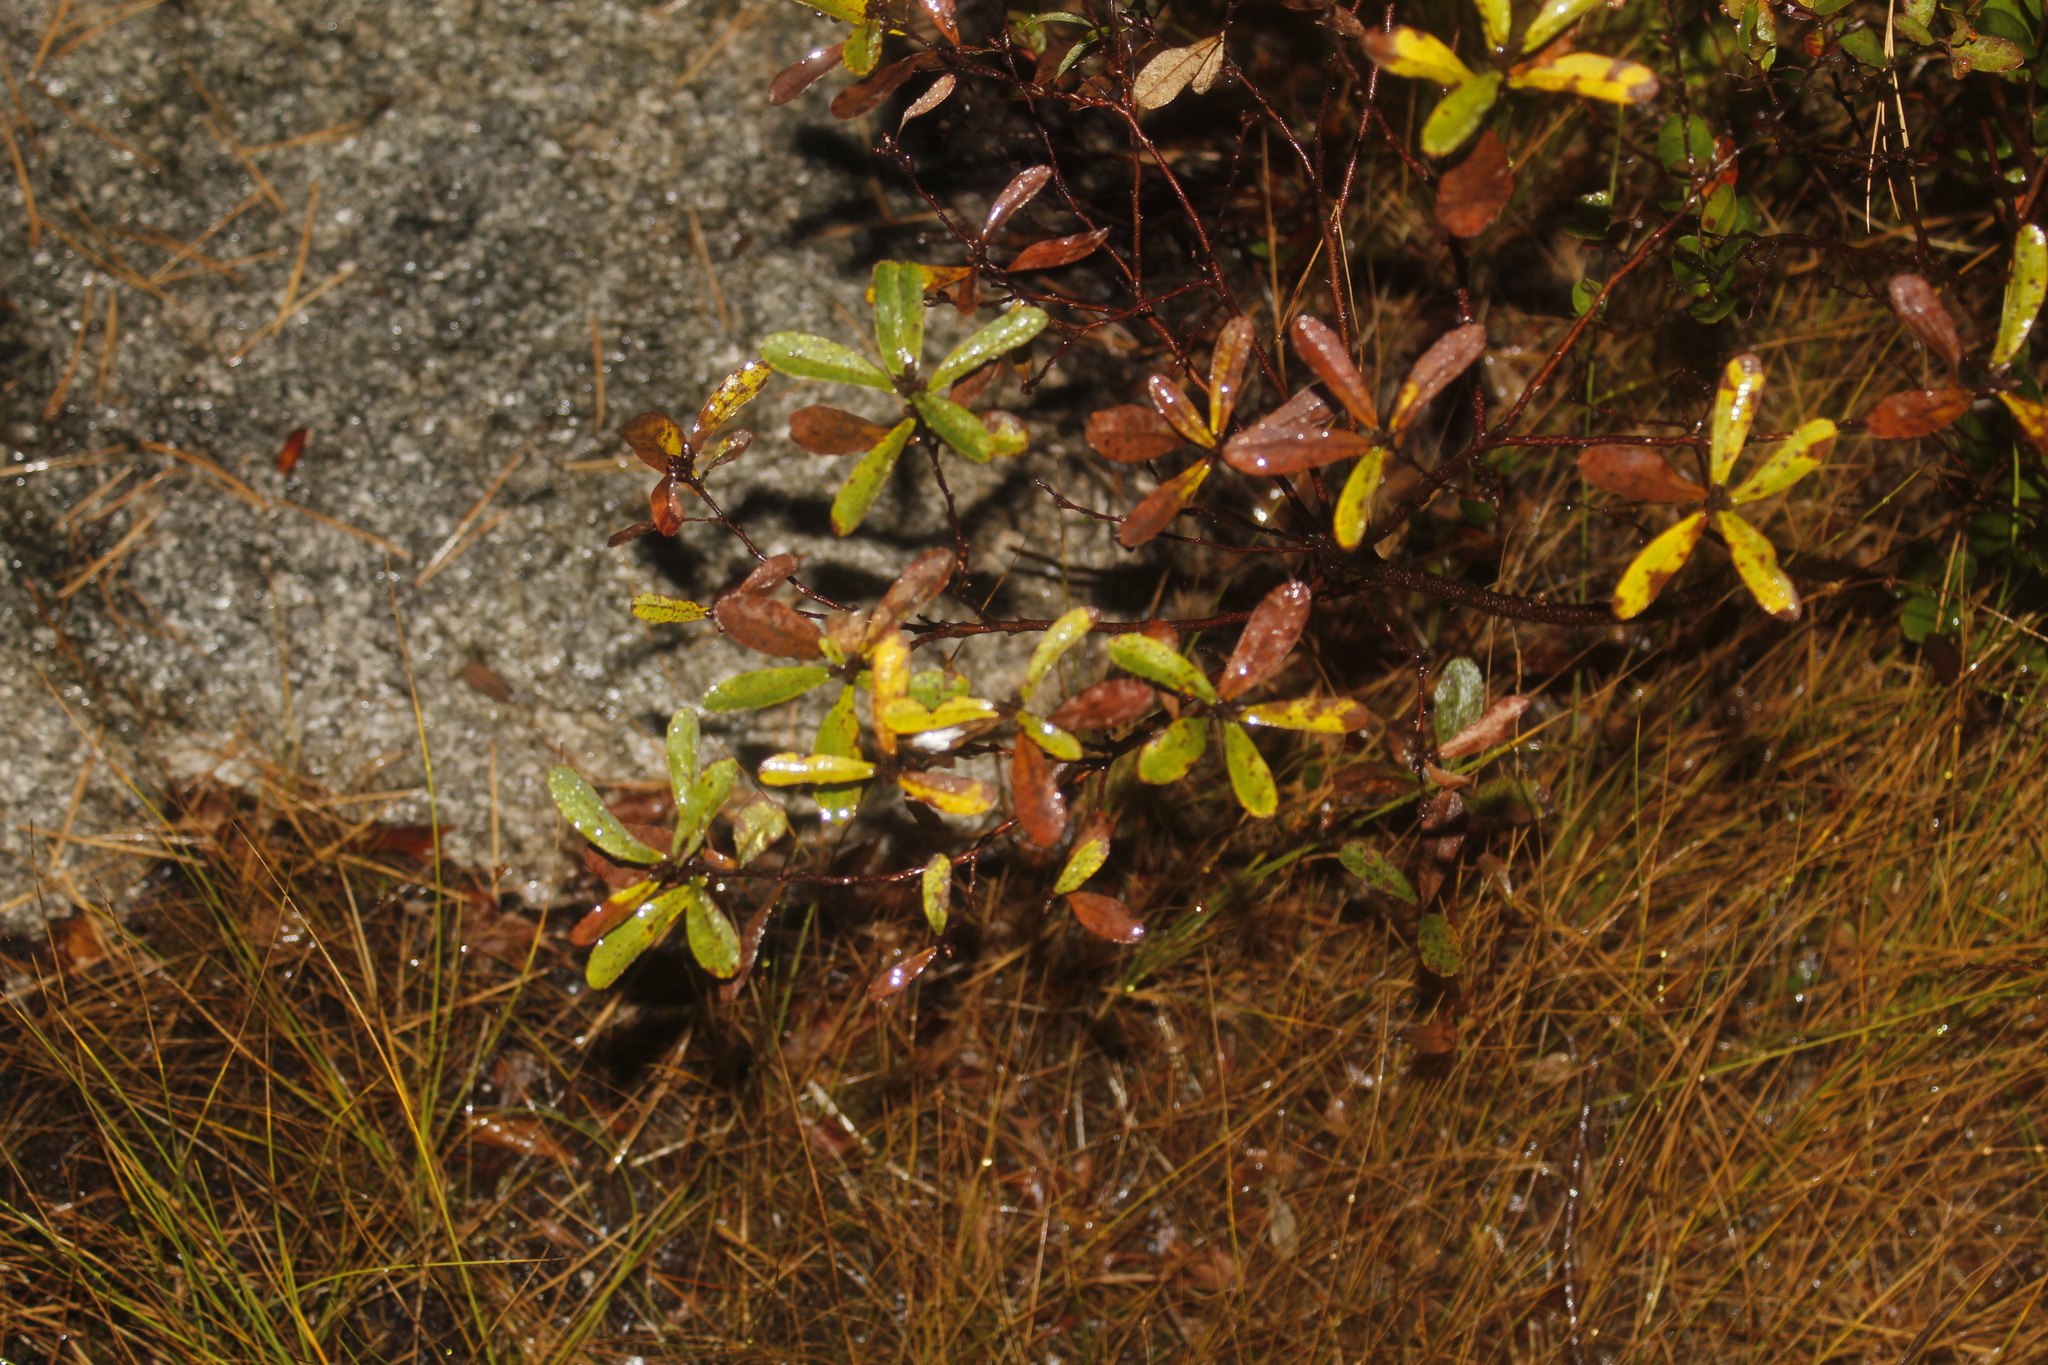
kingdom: Plantae
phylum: Tracheophyta
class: Magnoliopsida
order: Fagales
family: Myricaceae
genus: Myrica
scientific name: Myrica gale
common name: Sweet gale
